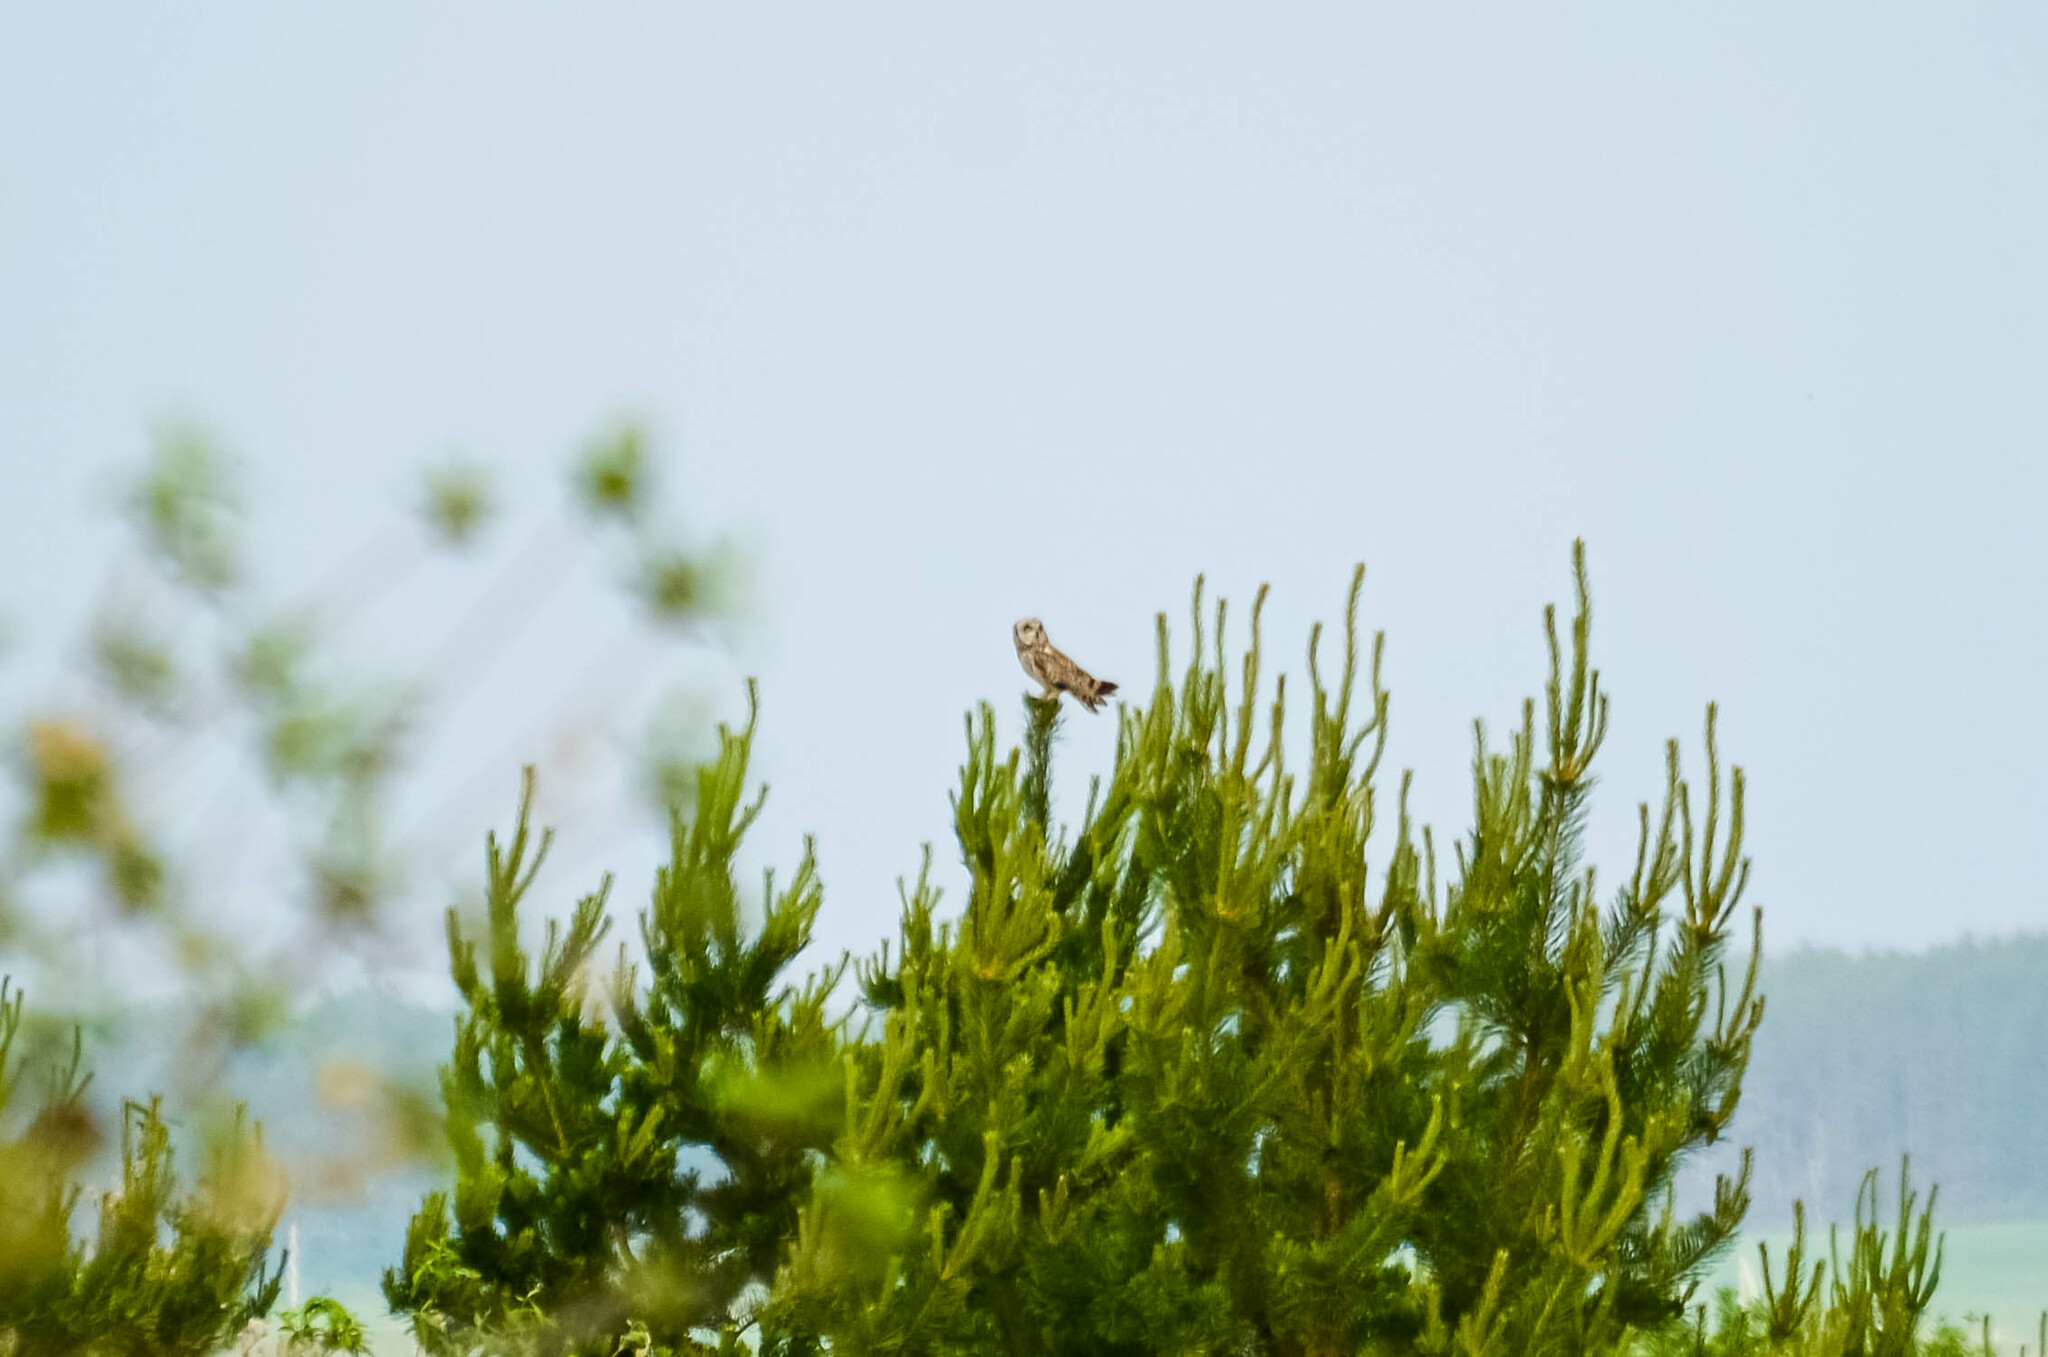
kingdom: Animalia
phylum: Chordata
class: Aves
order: Strigiformes
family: Strigidae
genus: Asio
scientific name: Asio flammeus
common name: Short-eared owl
